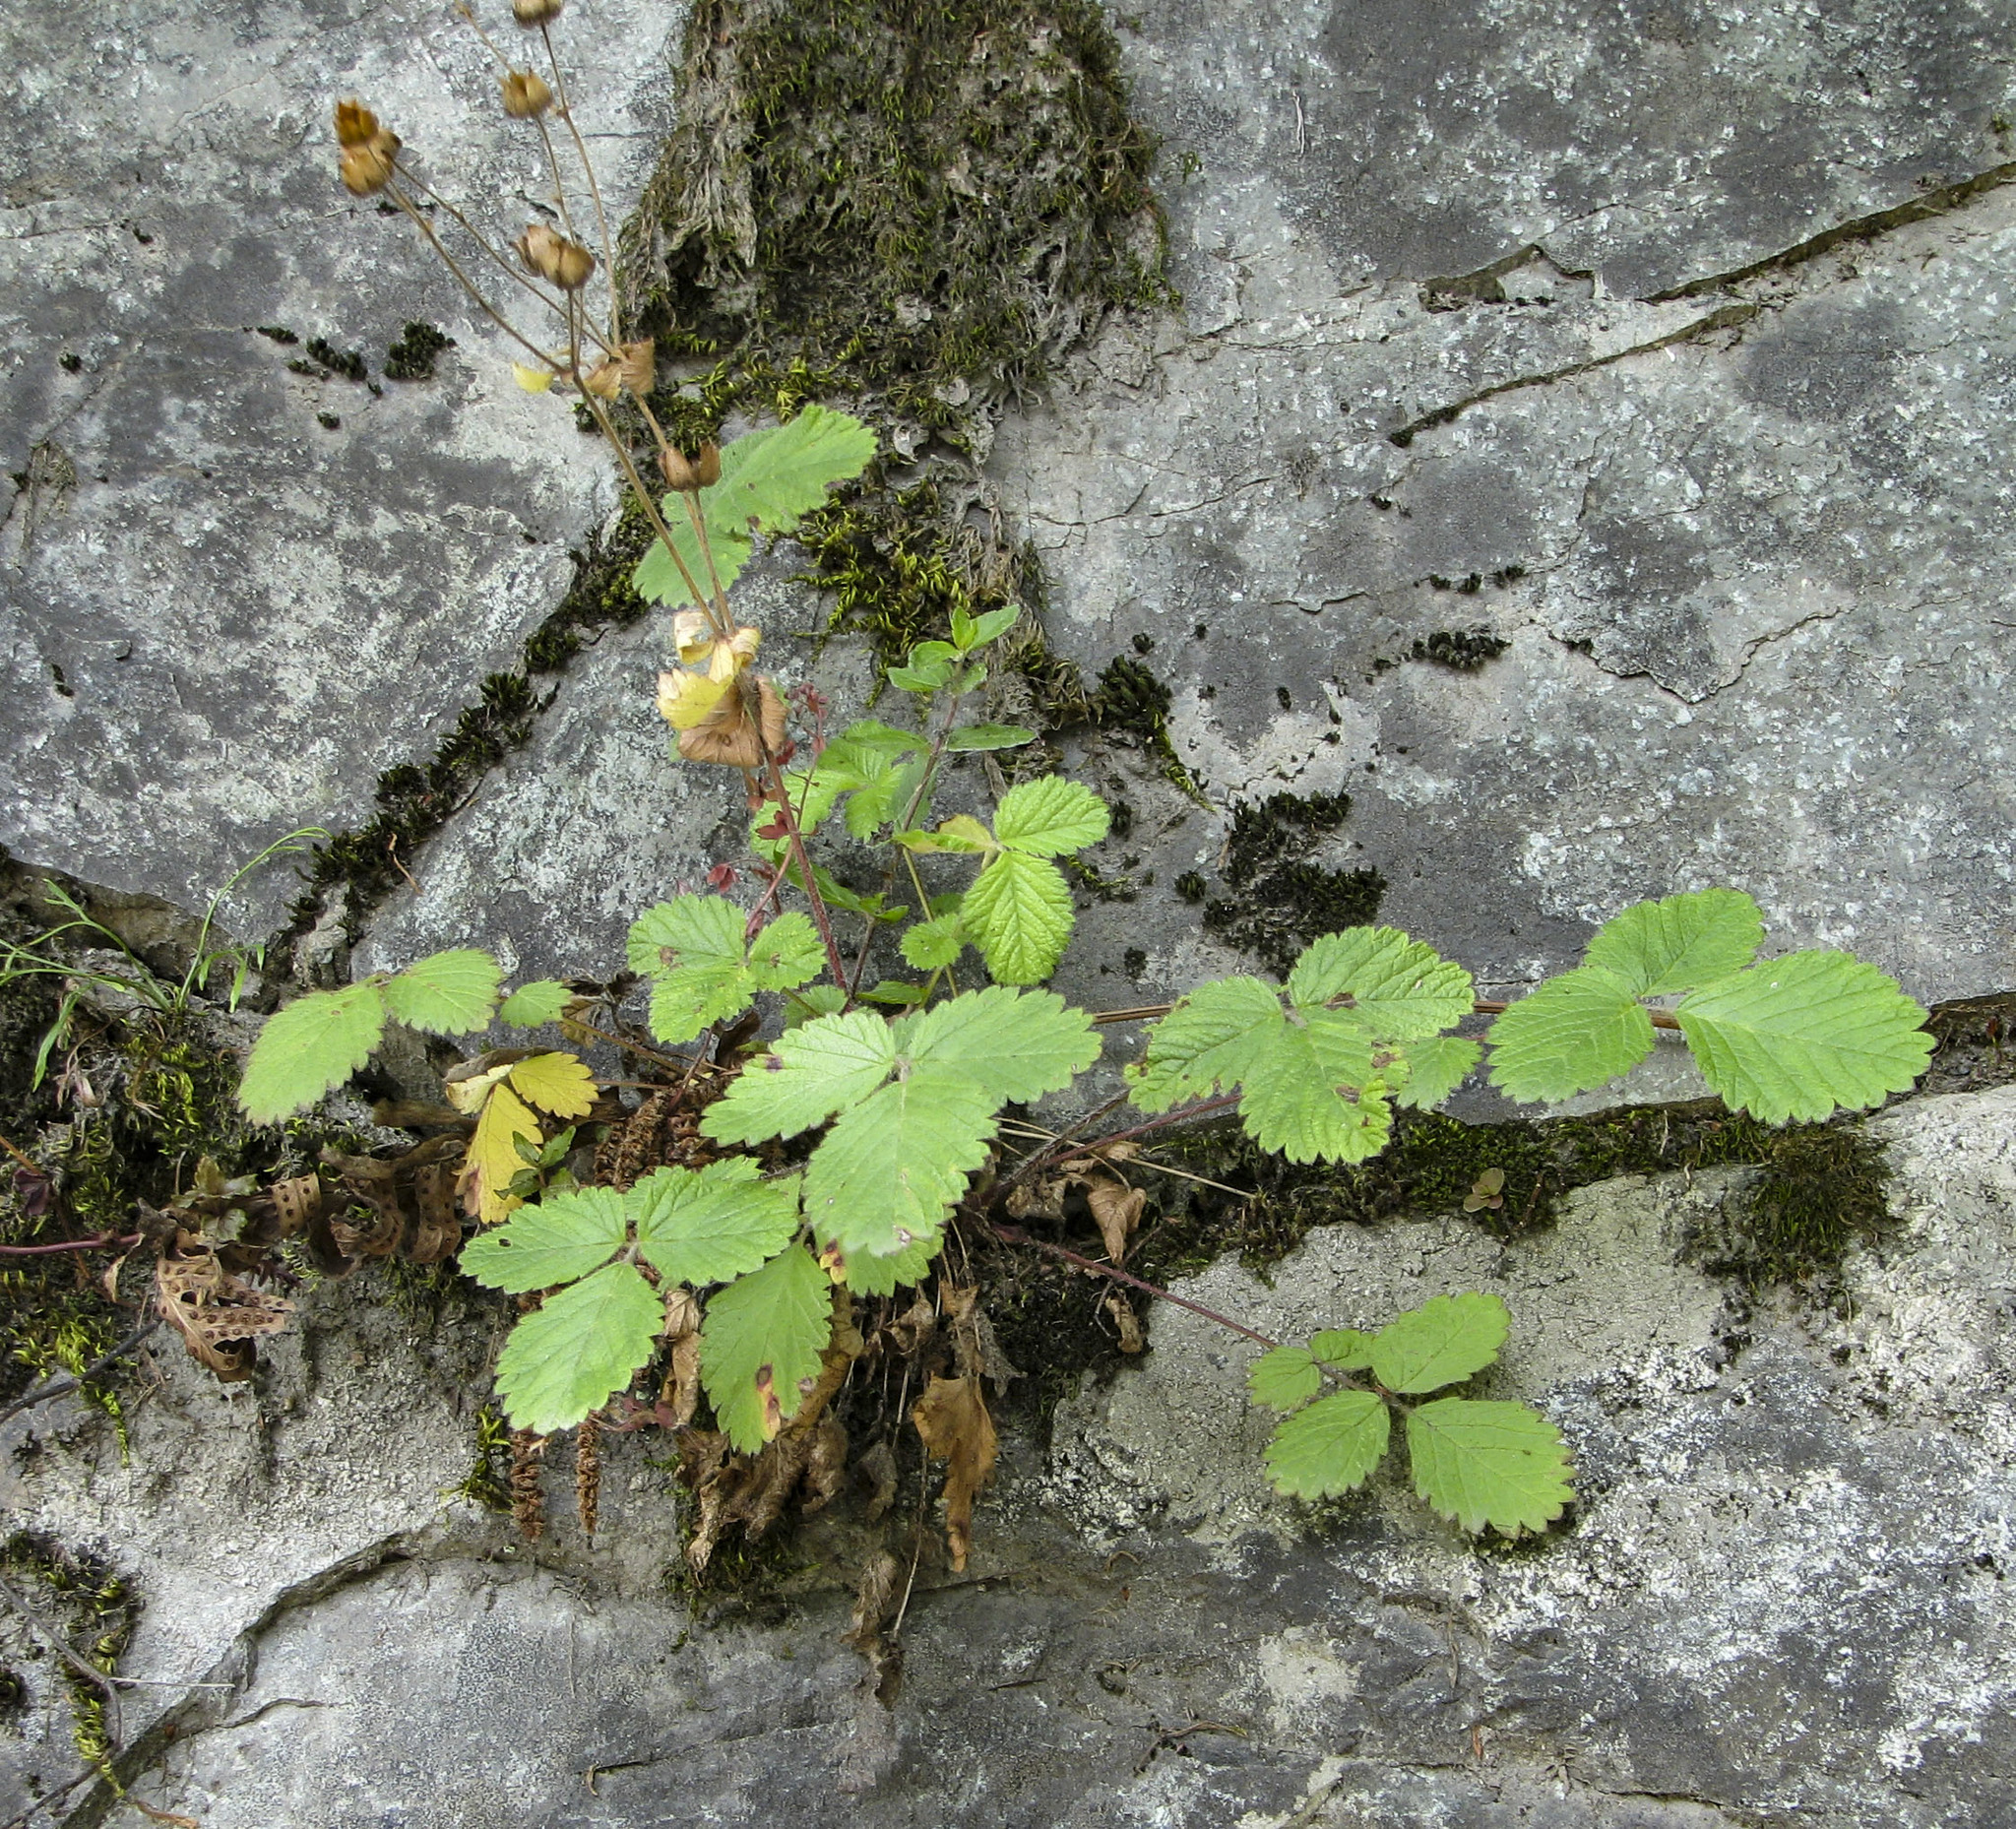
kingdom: Plantae
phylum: Tracheophyta
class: Magnoliopsida
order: Rosales
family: Rosaceae
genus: Drymocallis
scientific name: Drymocallis rupestris
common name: Rock cinquefoil
